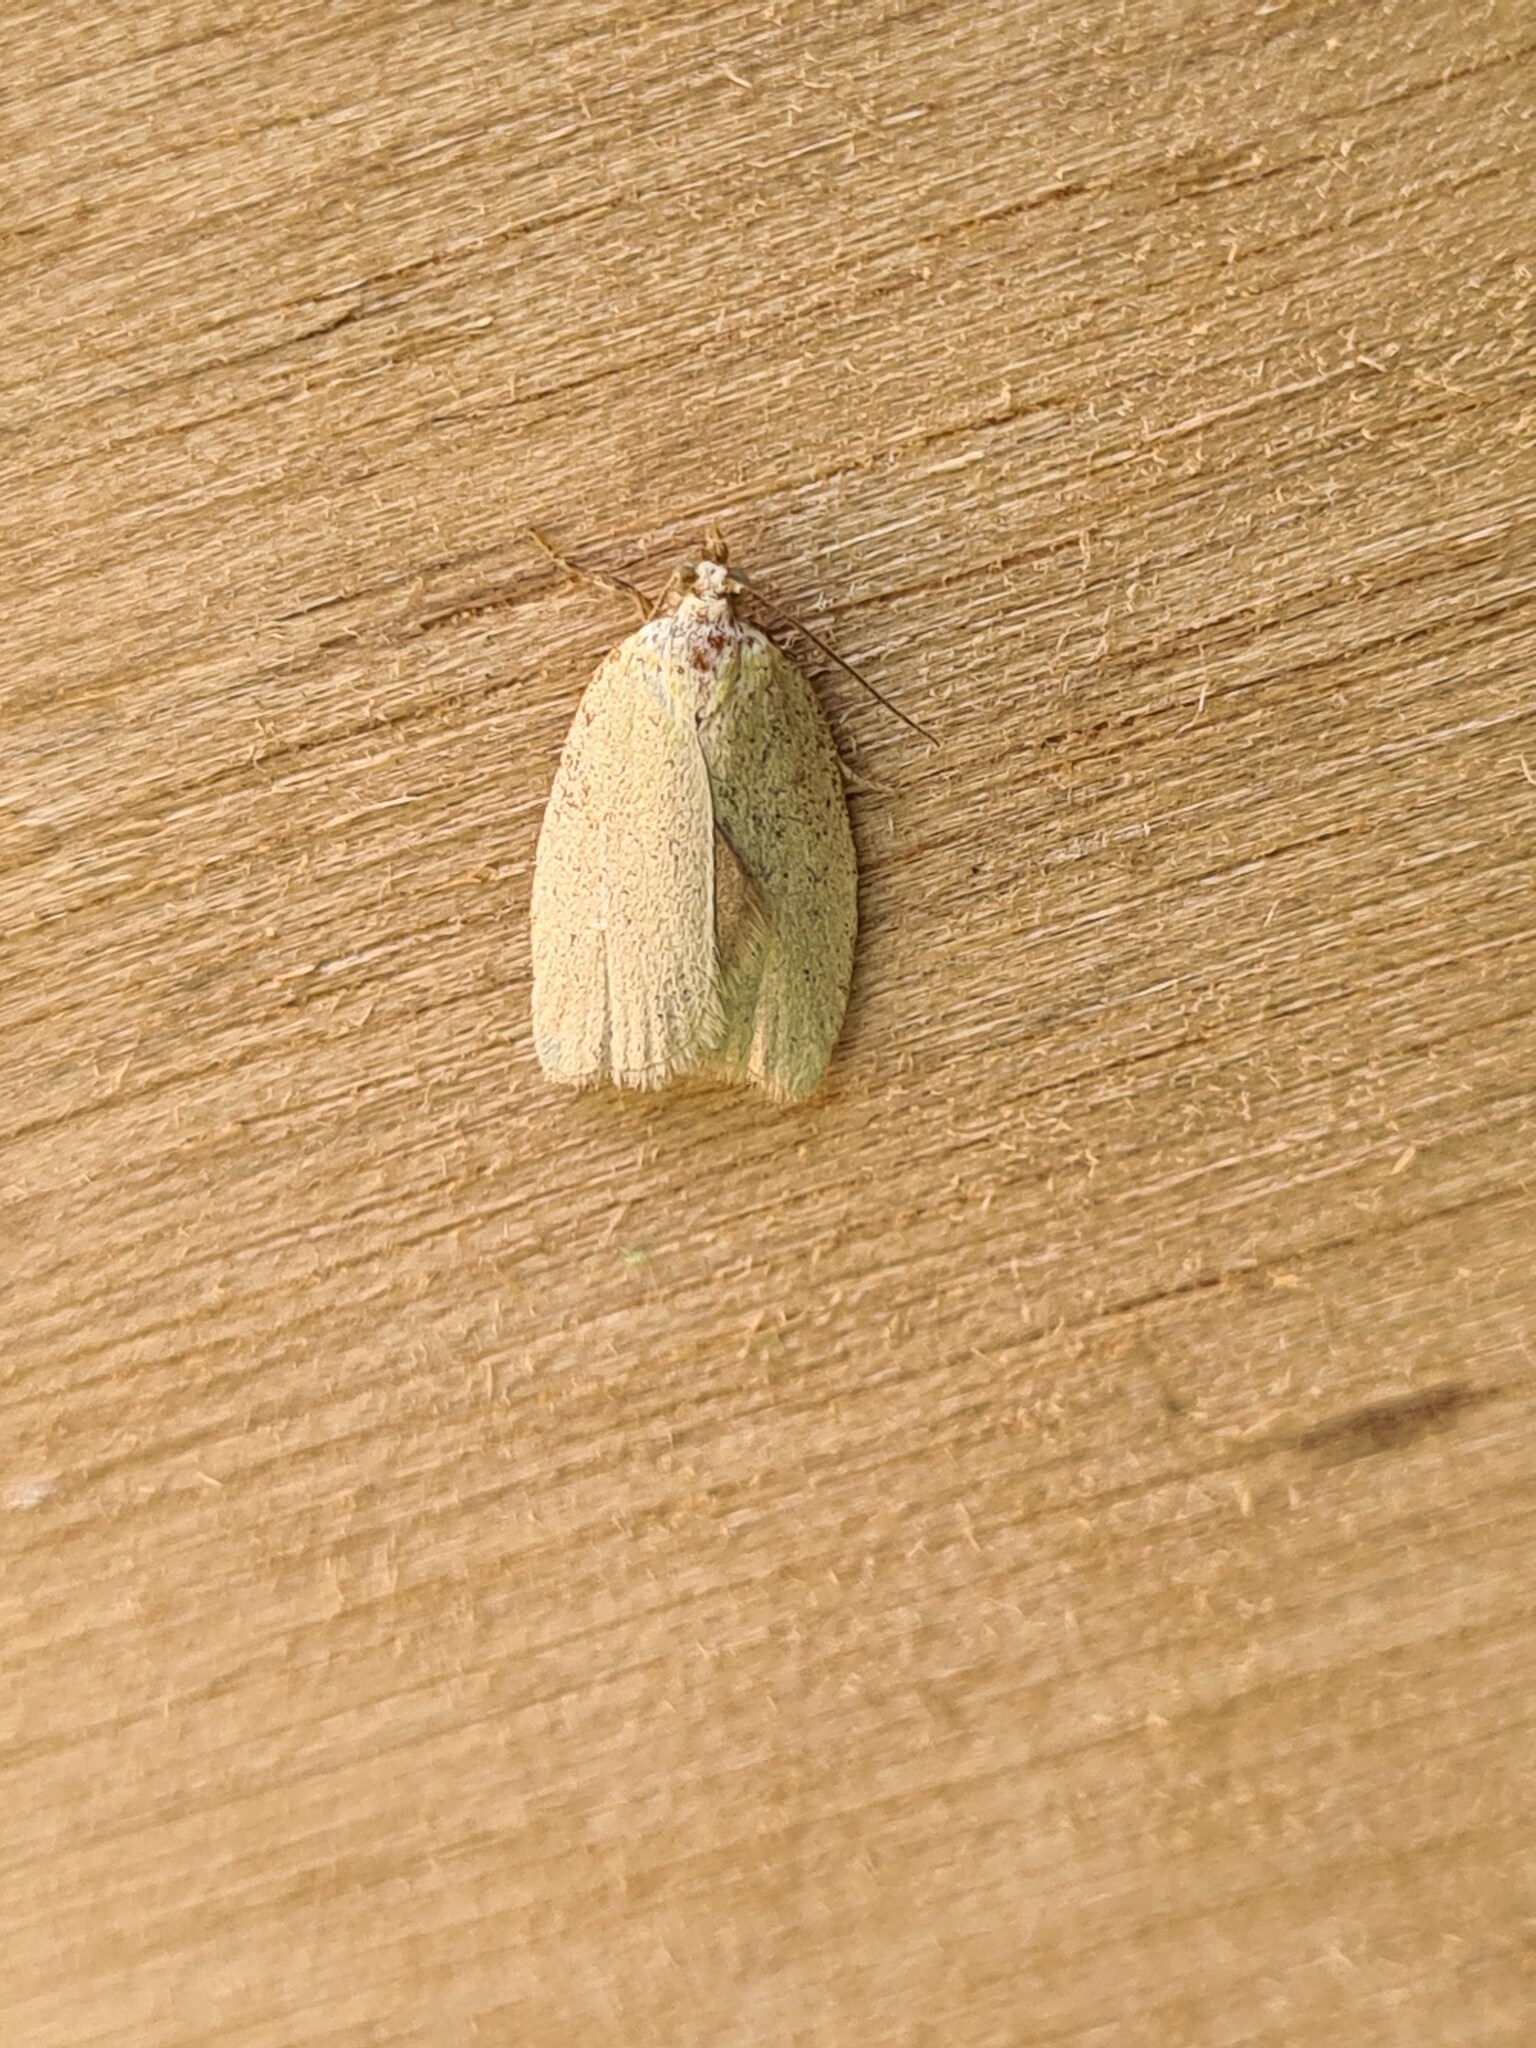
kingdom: Animalia
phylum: Arthropoda
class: Insecta
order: Lepidoptera
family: Tortricidae
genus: Tortrix
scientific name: Tortrix viridana
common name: Green oak tortrix
